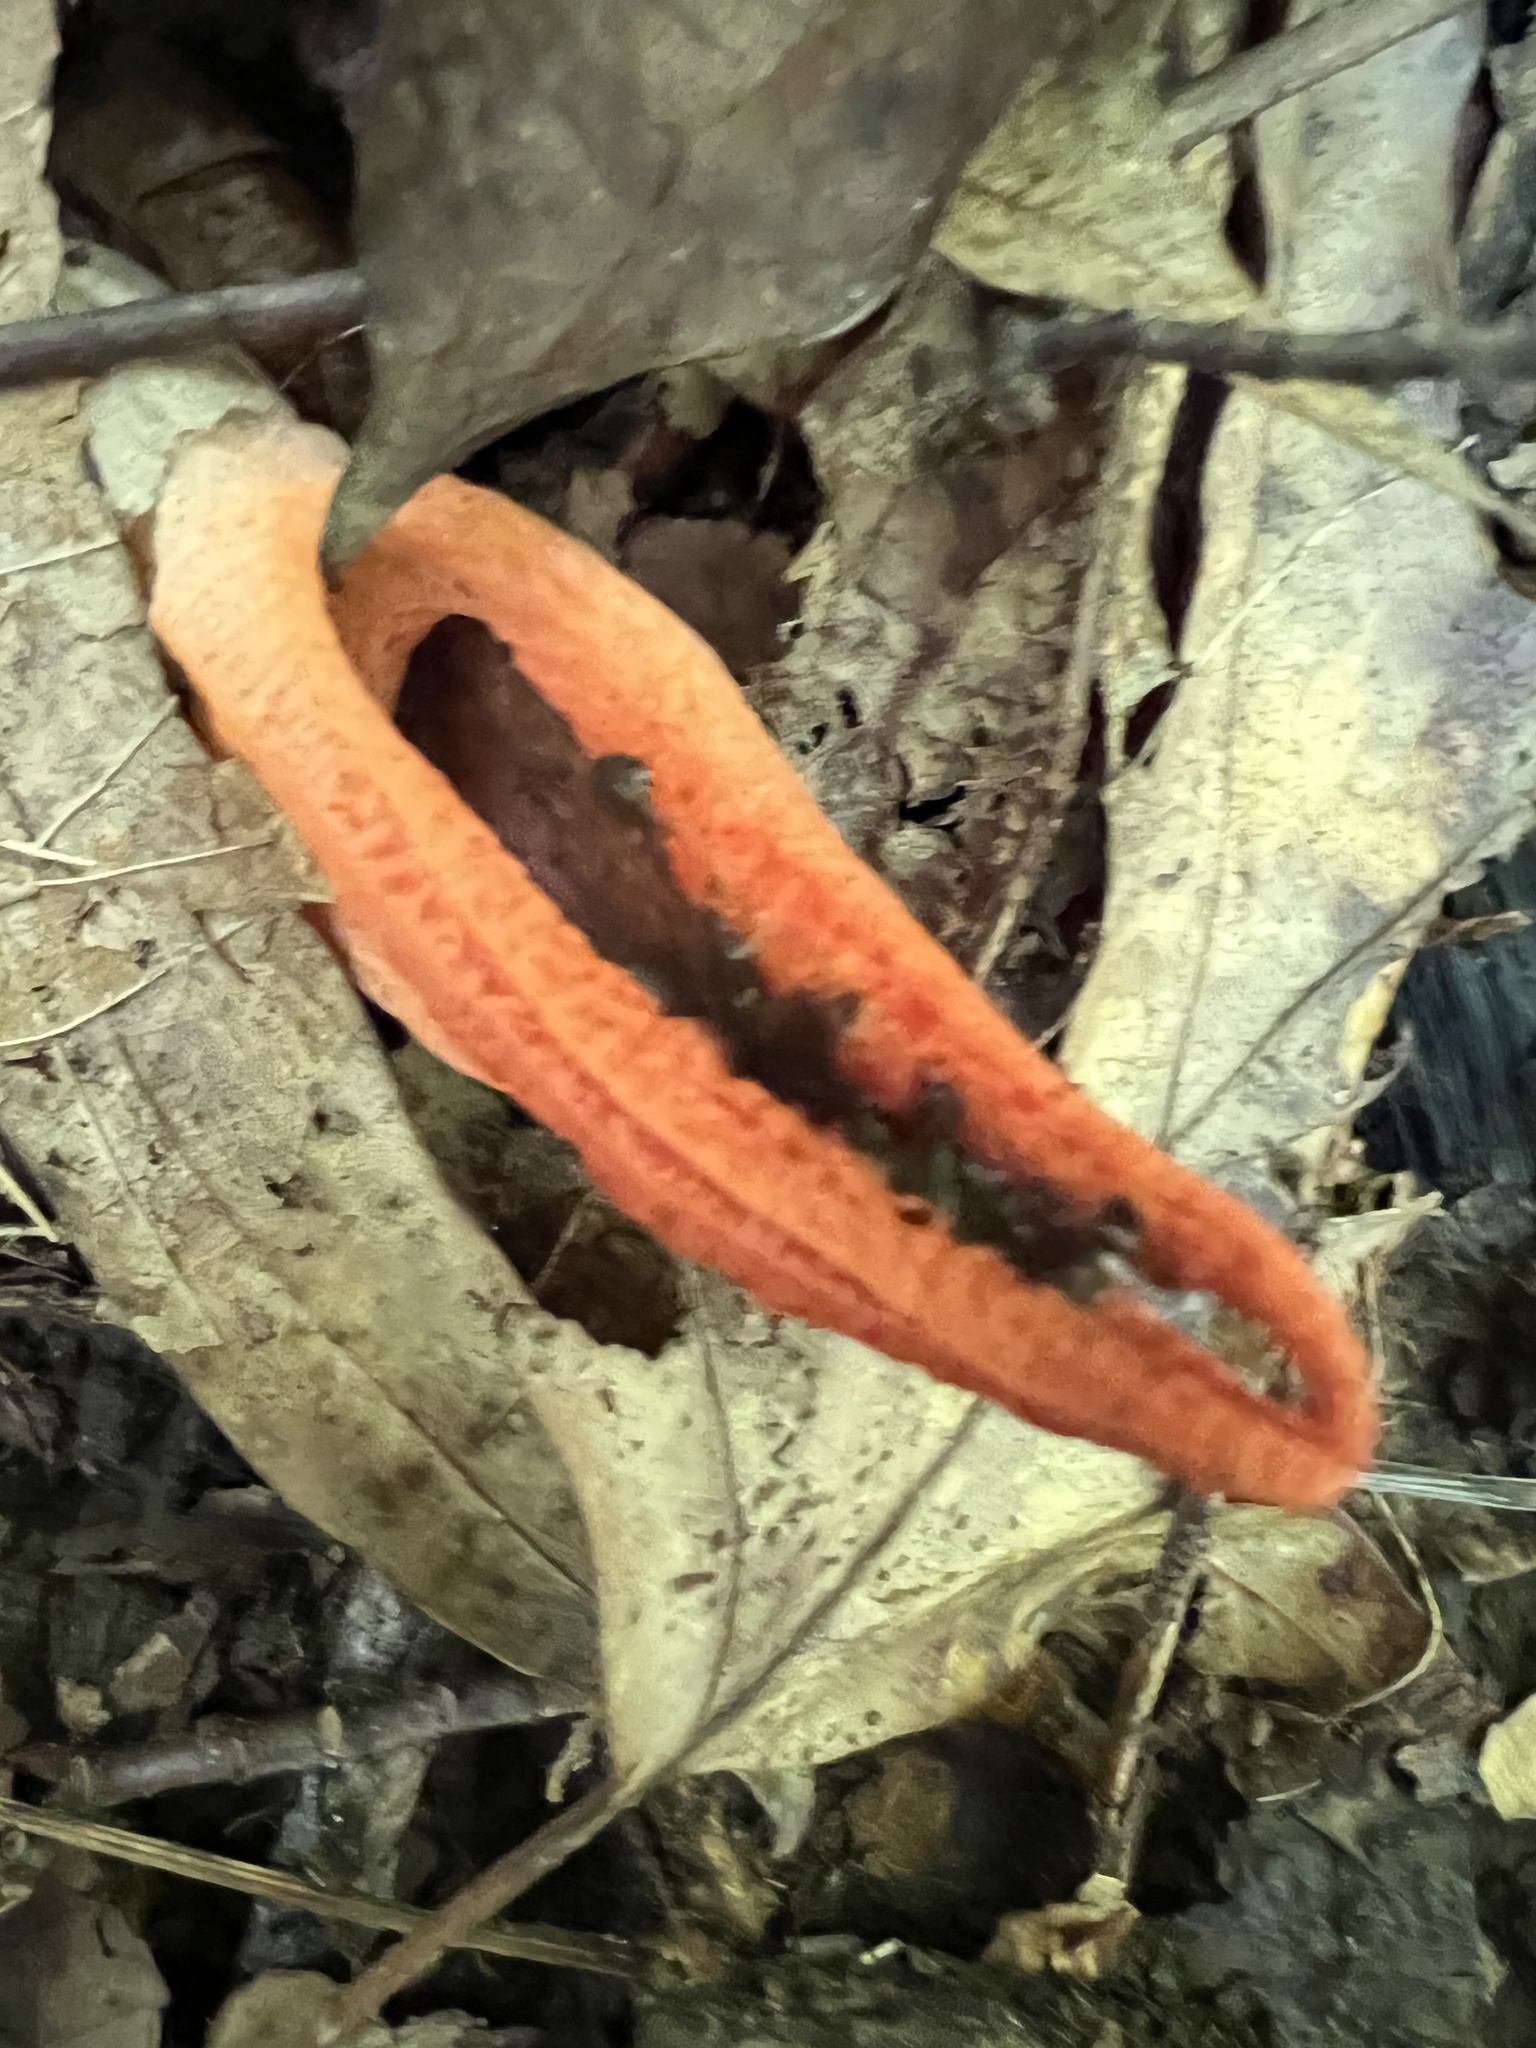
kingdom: Fungi
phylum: Basidiomycota
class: Agaricomycetes
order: Phallales
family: Phallaceae
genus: Pseudocolus
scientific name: Pseudocolus fusiformis
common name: Stinky squid
